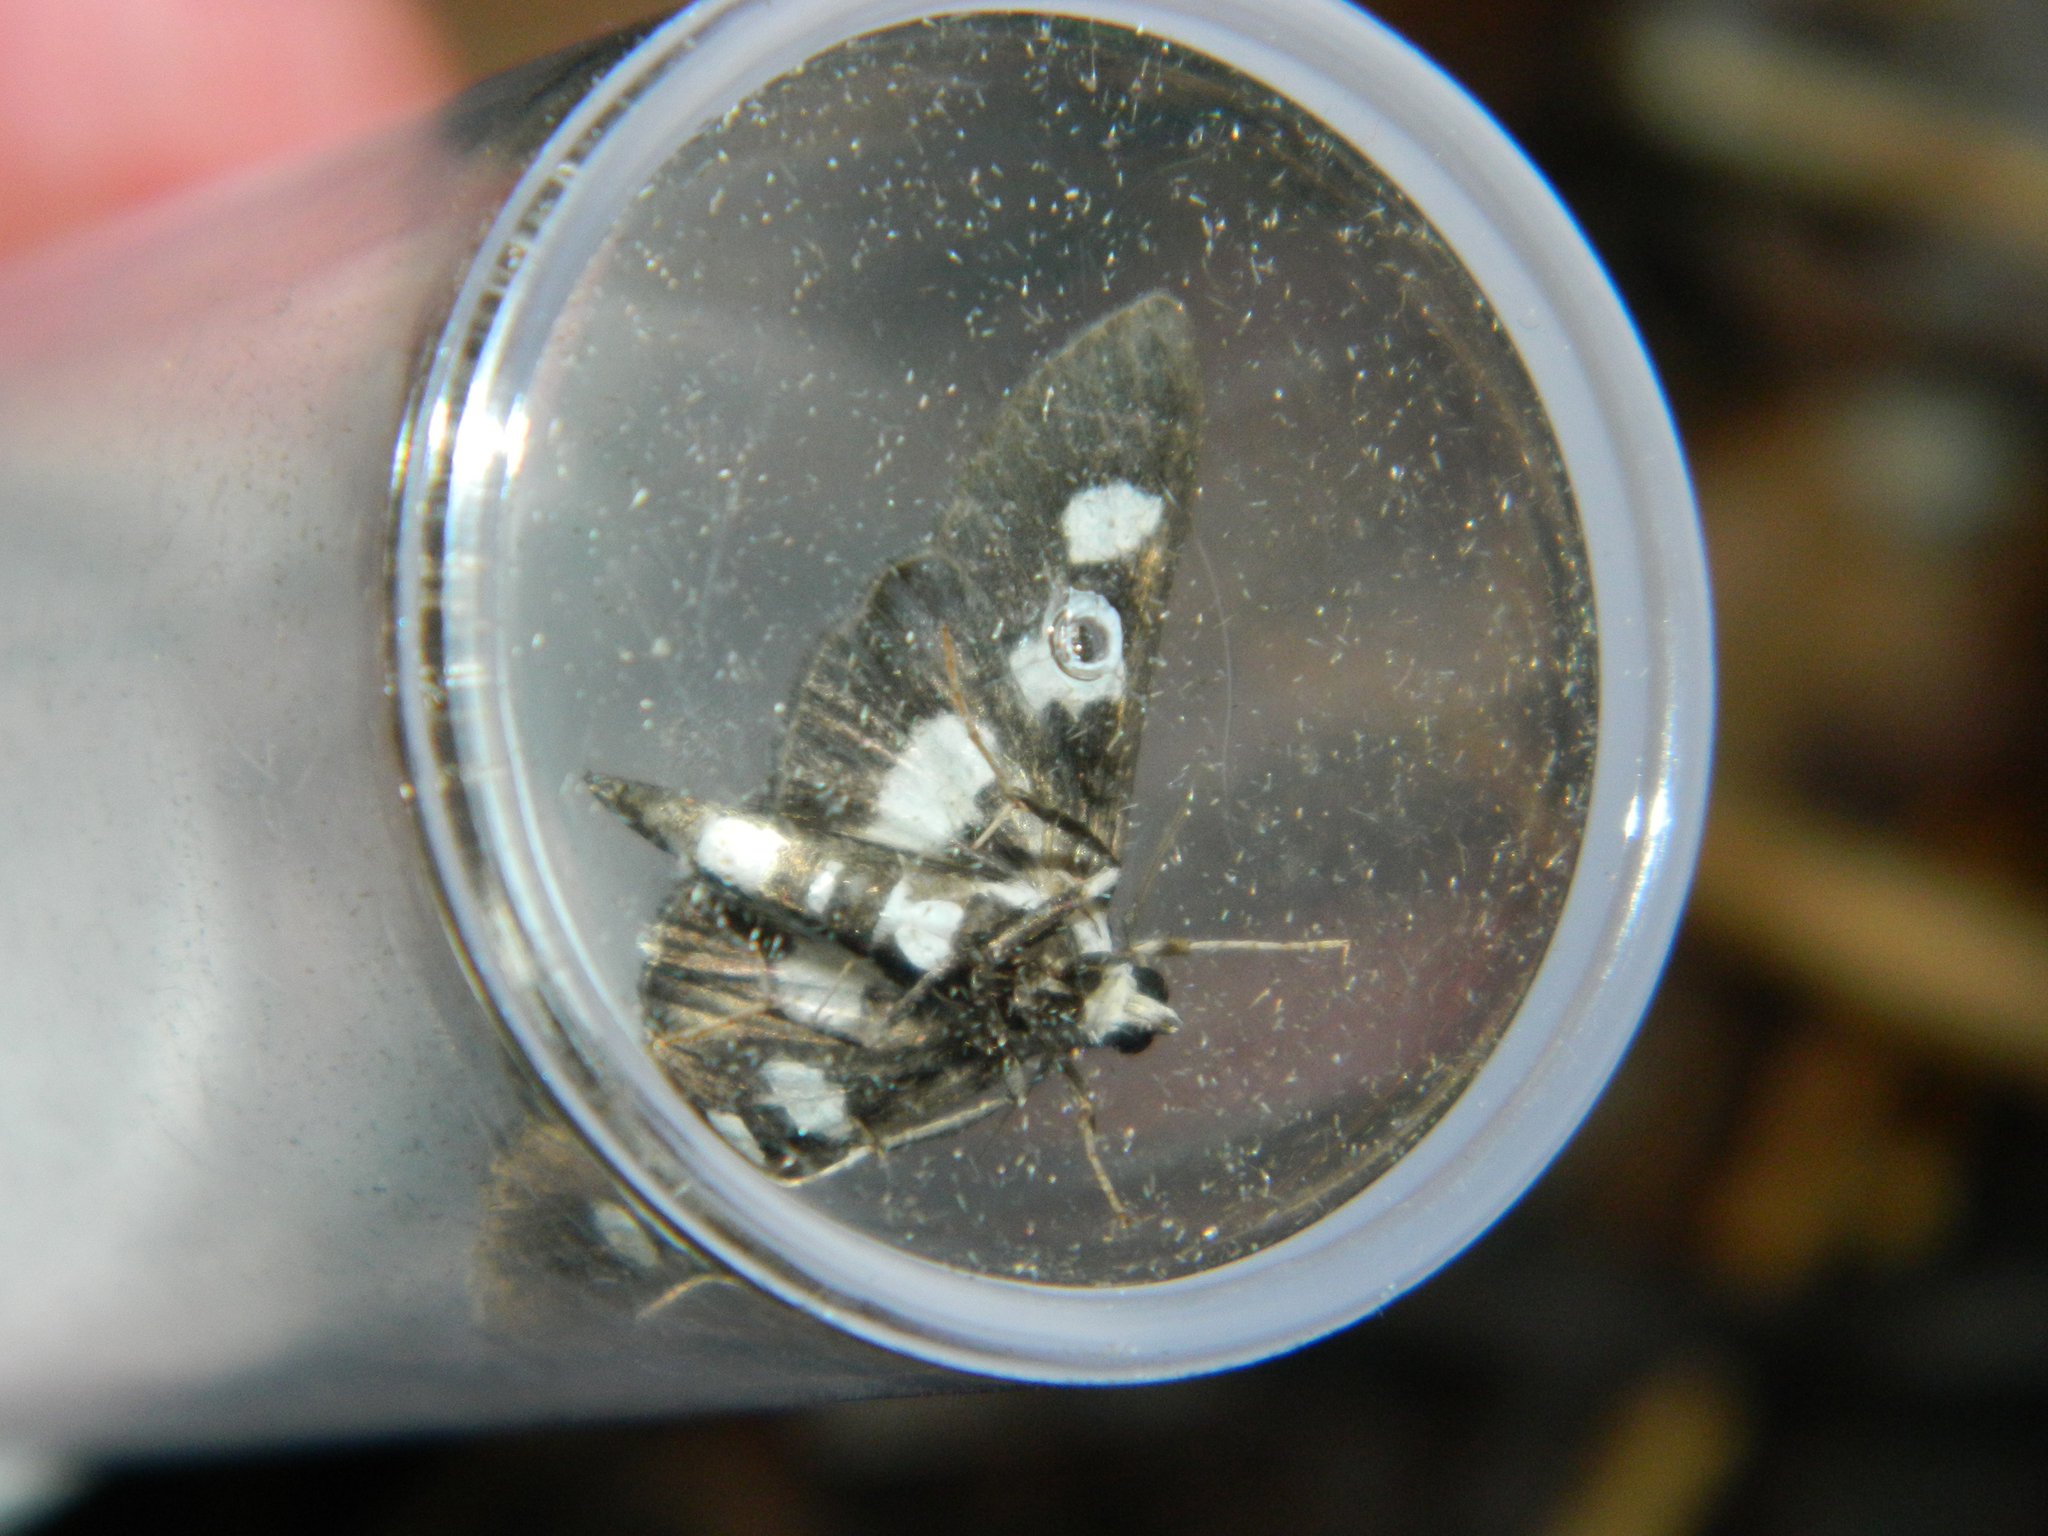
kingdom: Animalia
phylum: Arthropoda
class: Insecta
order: Lepidoptera
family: Crambidae
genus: Desmia
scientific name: Desmia funeralis
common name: Grape leaf folder moth
